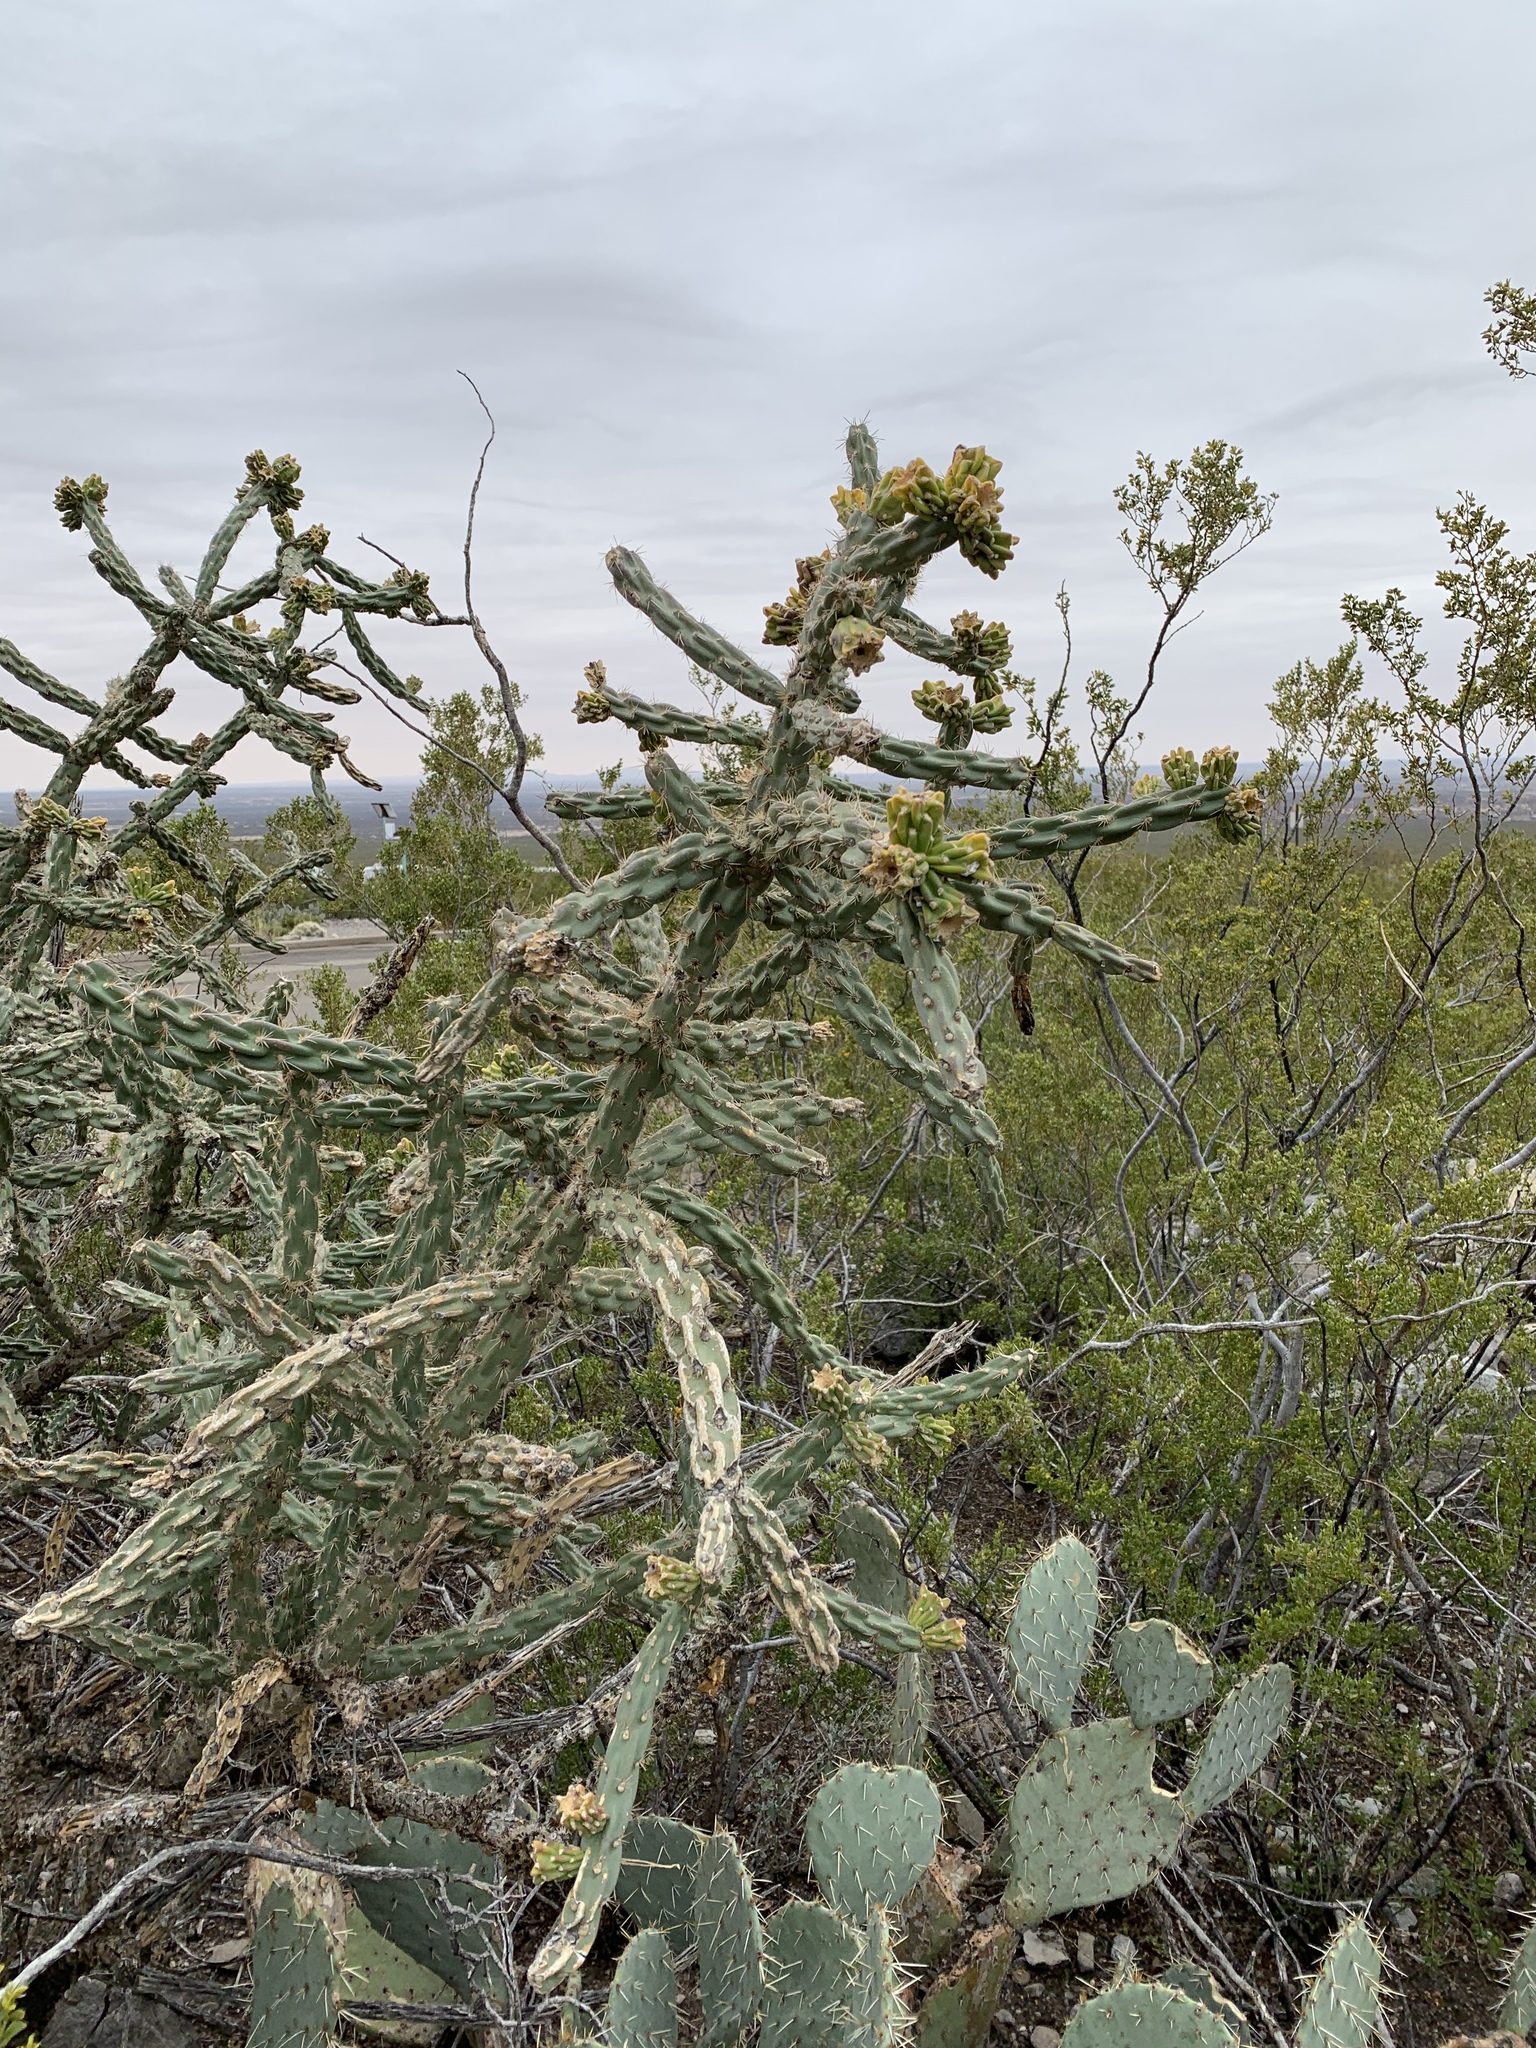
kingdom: Plantae
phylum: Tracheophyta
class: Magnoliopsida
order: Caryophyllales
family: Cactaceae
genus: Cylindropuntia
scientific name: Cylindropuntia imbricata
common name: Candelabrum cactus
